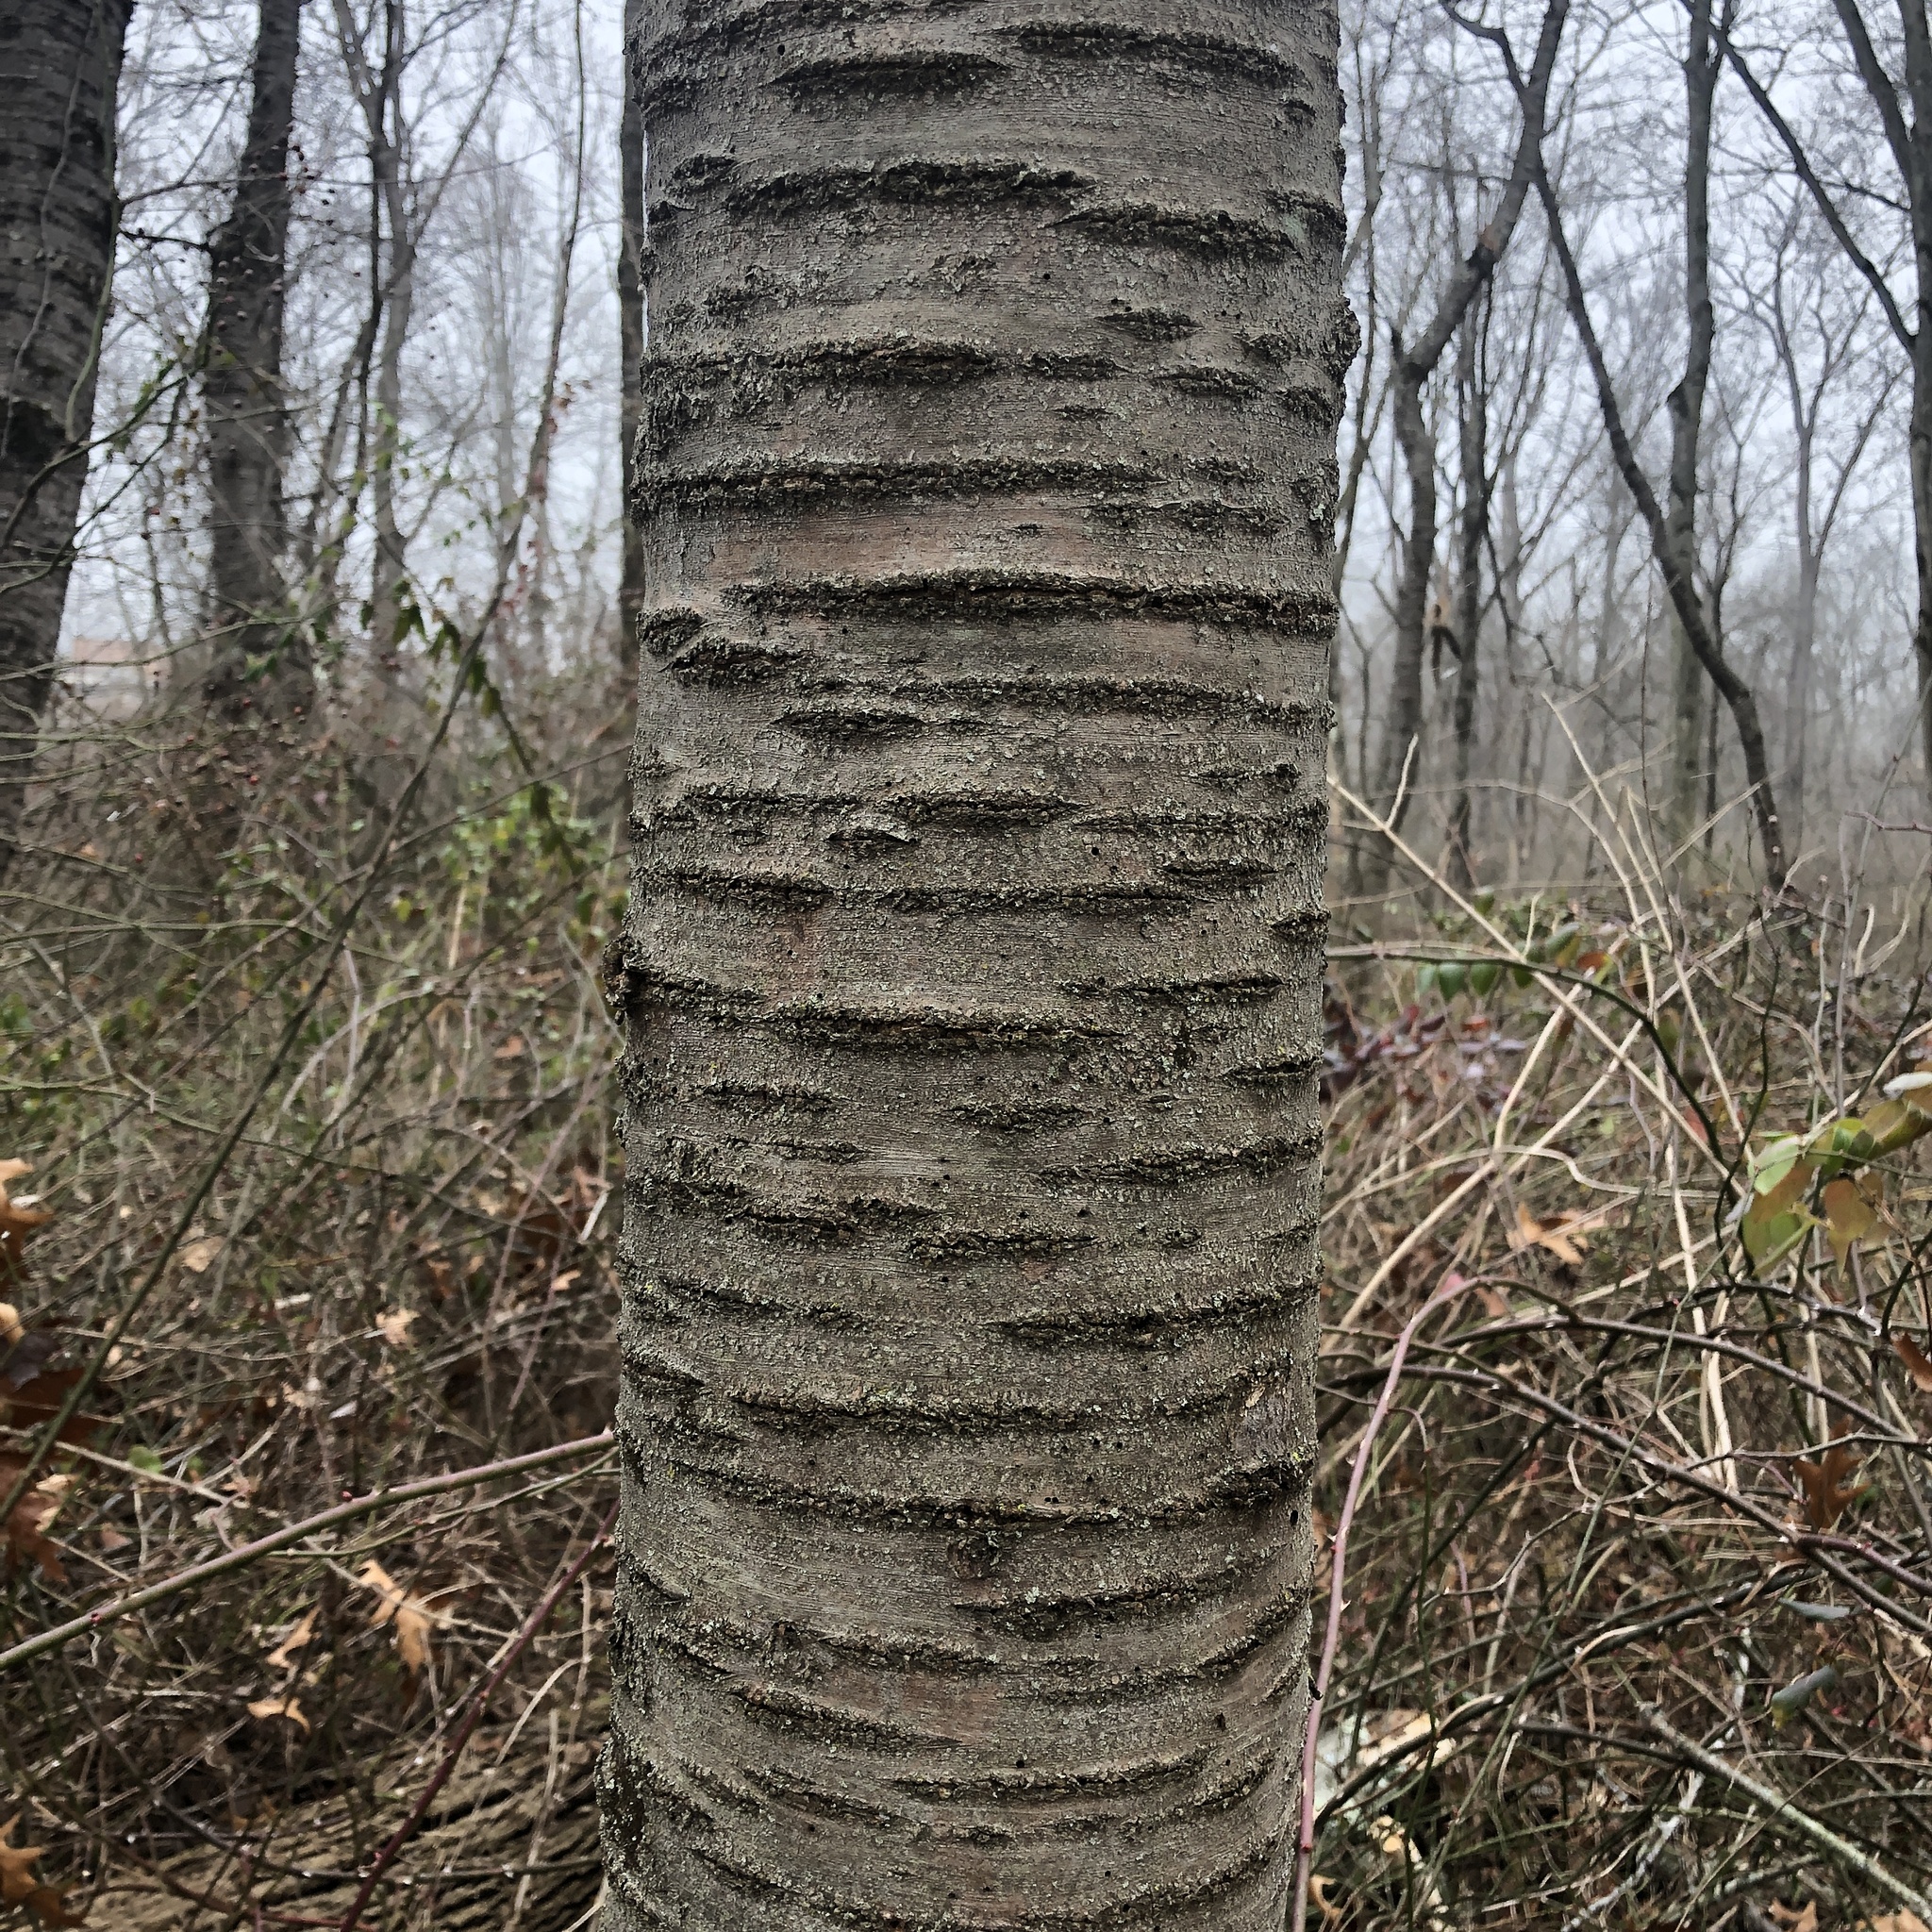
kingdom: Plantae
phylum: Tracheophyta
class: Magnoliopsida
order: Rosales
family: Rosaceae
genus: Prunus
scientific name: Prunus avium
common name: Sweet cherry
